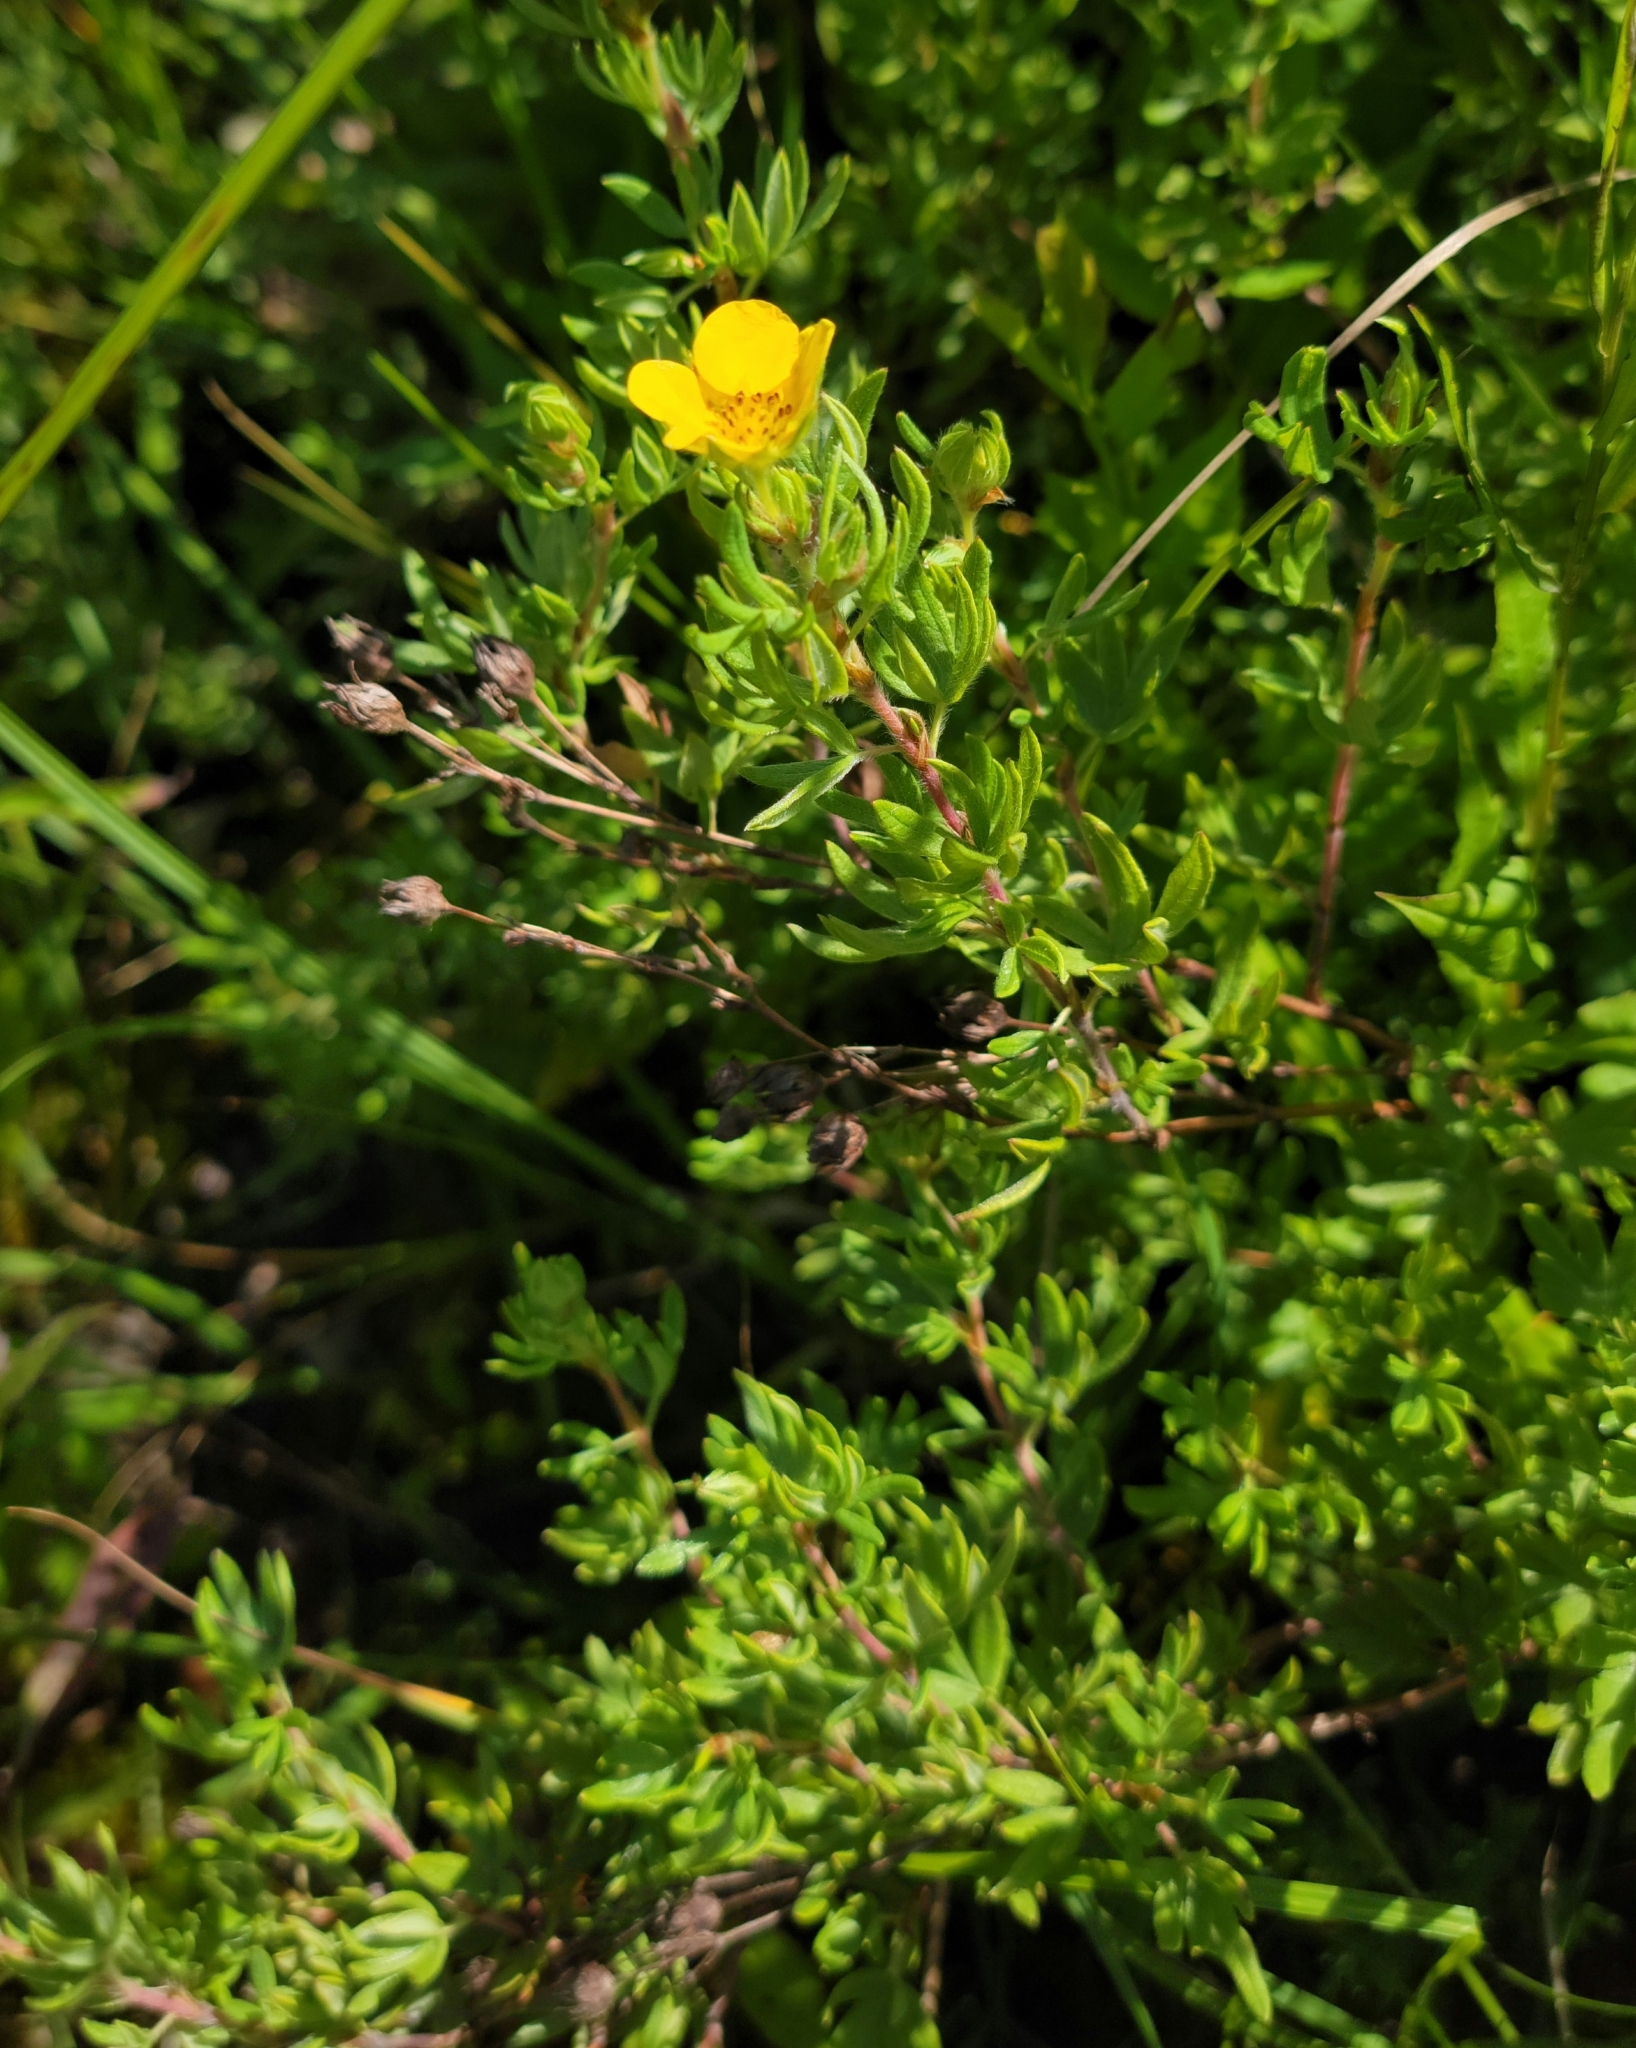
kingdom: Plantae
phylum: Tracheophyta
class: Magnoliopsida
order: Rosales
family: Rosaceae
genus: Dasiphora
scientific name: Dasiphora fruticosa
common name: Shrubby cinquefoil
